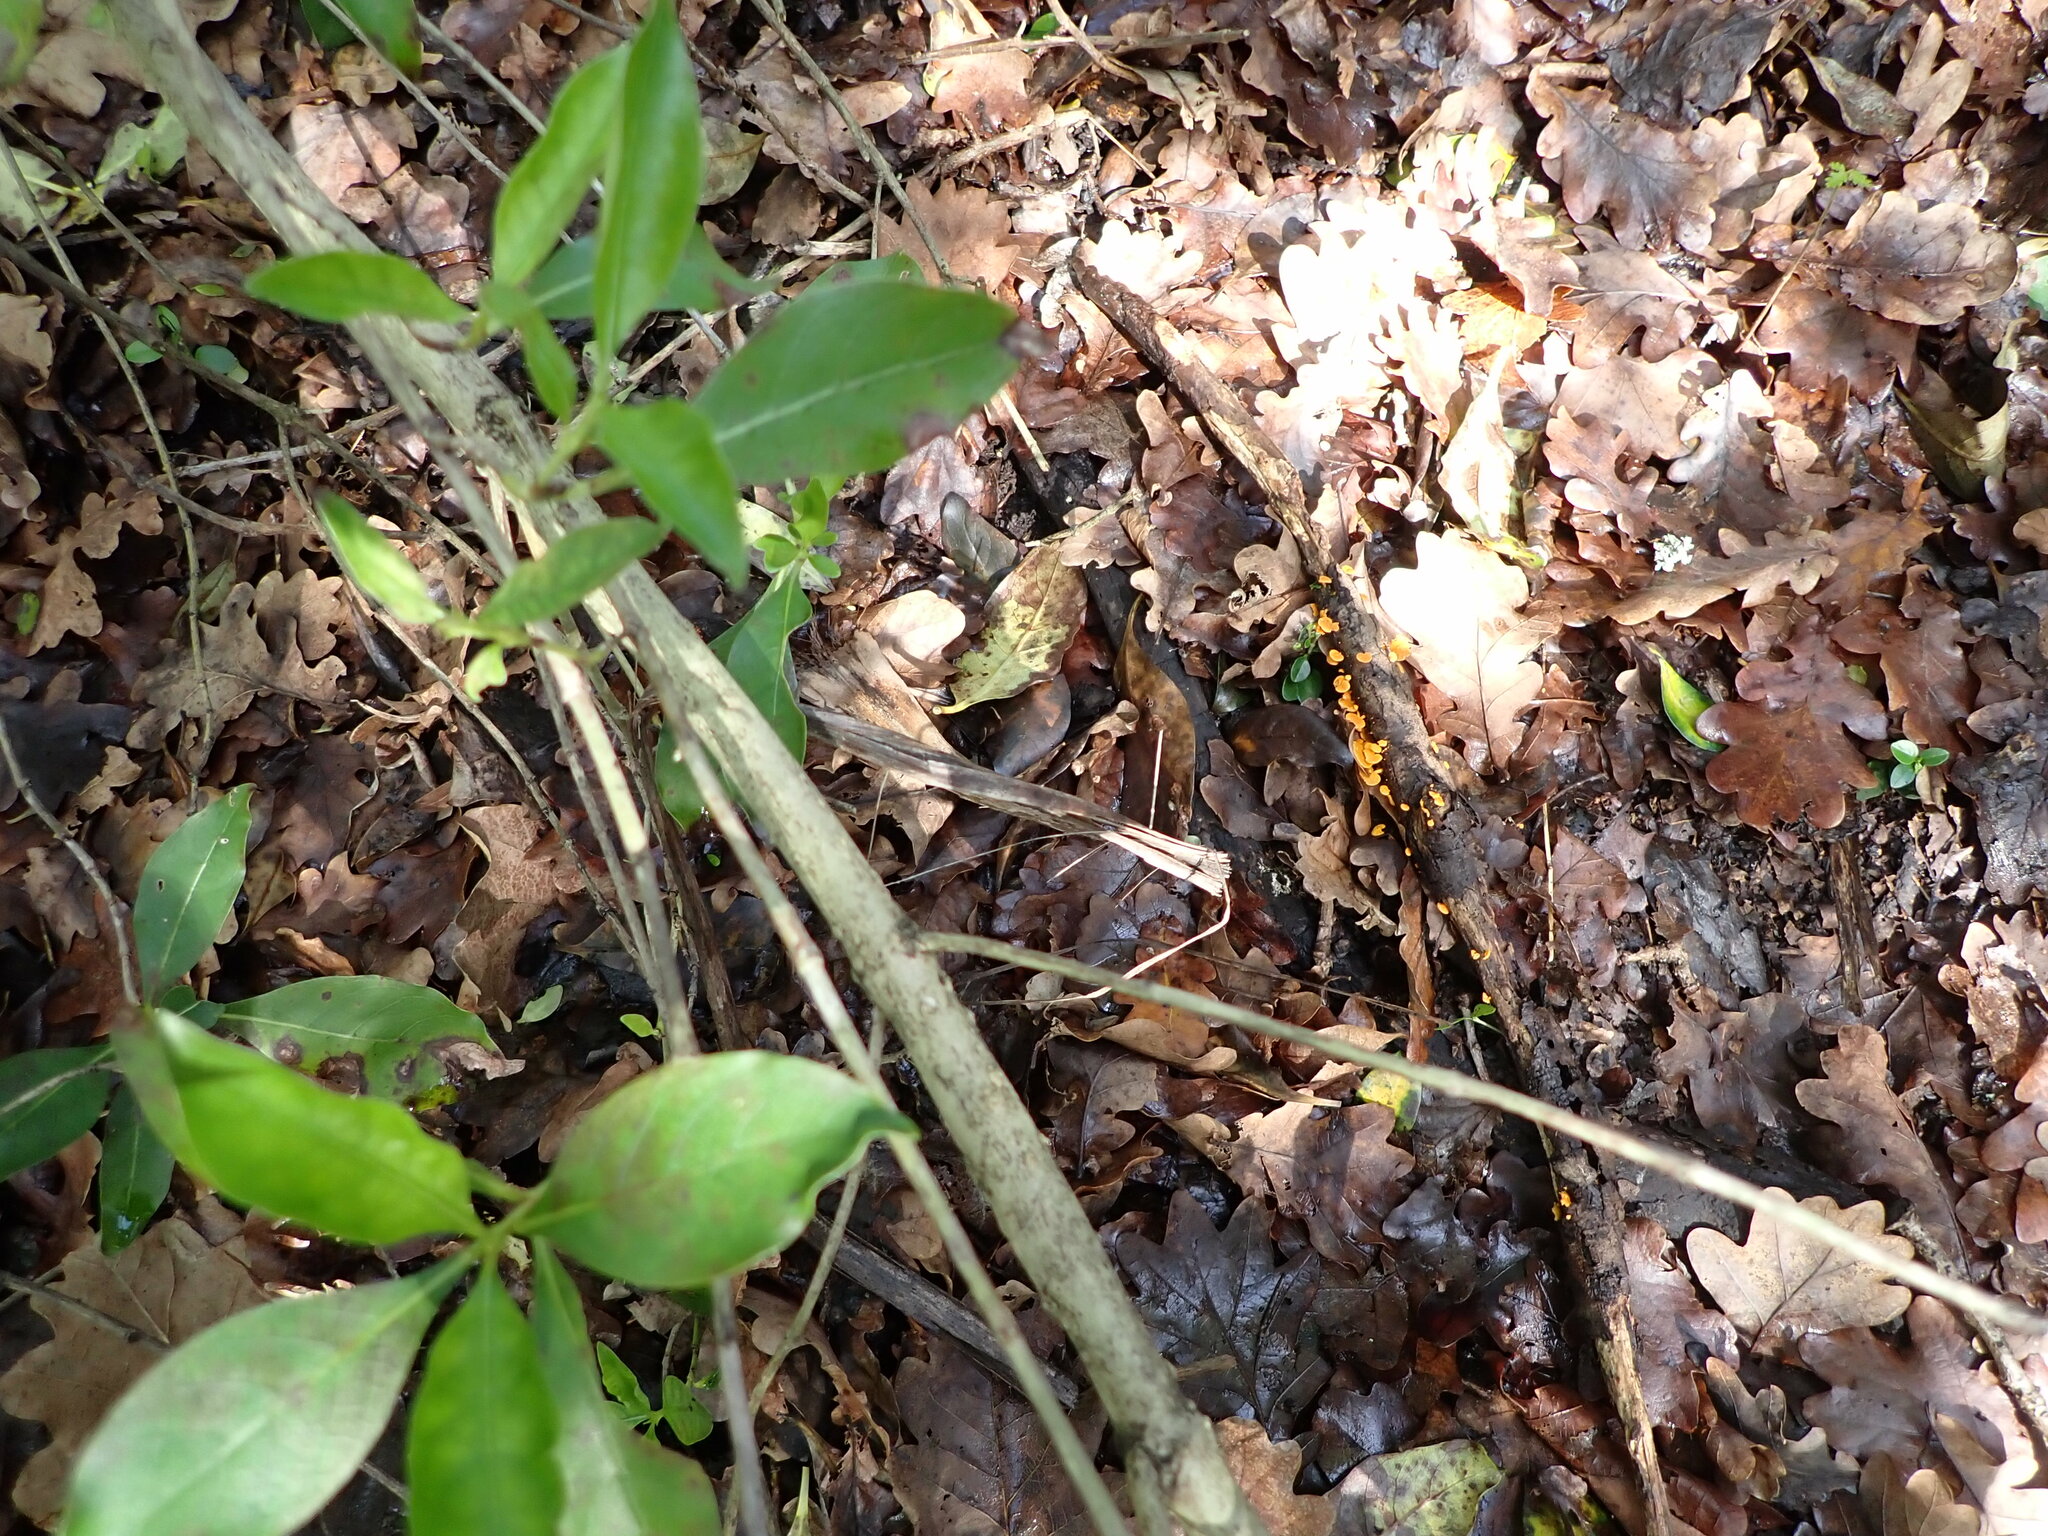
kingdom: Fungi
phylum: Basidiomycota
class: Agaricomycetes
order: Agaricales
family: Mycenaceae
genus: Favolaschia
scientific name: Favolaschia claudopus
